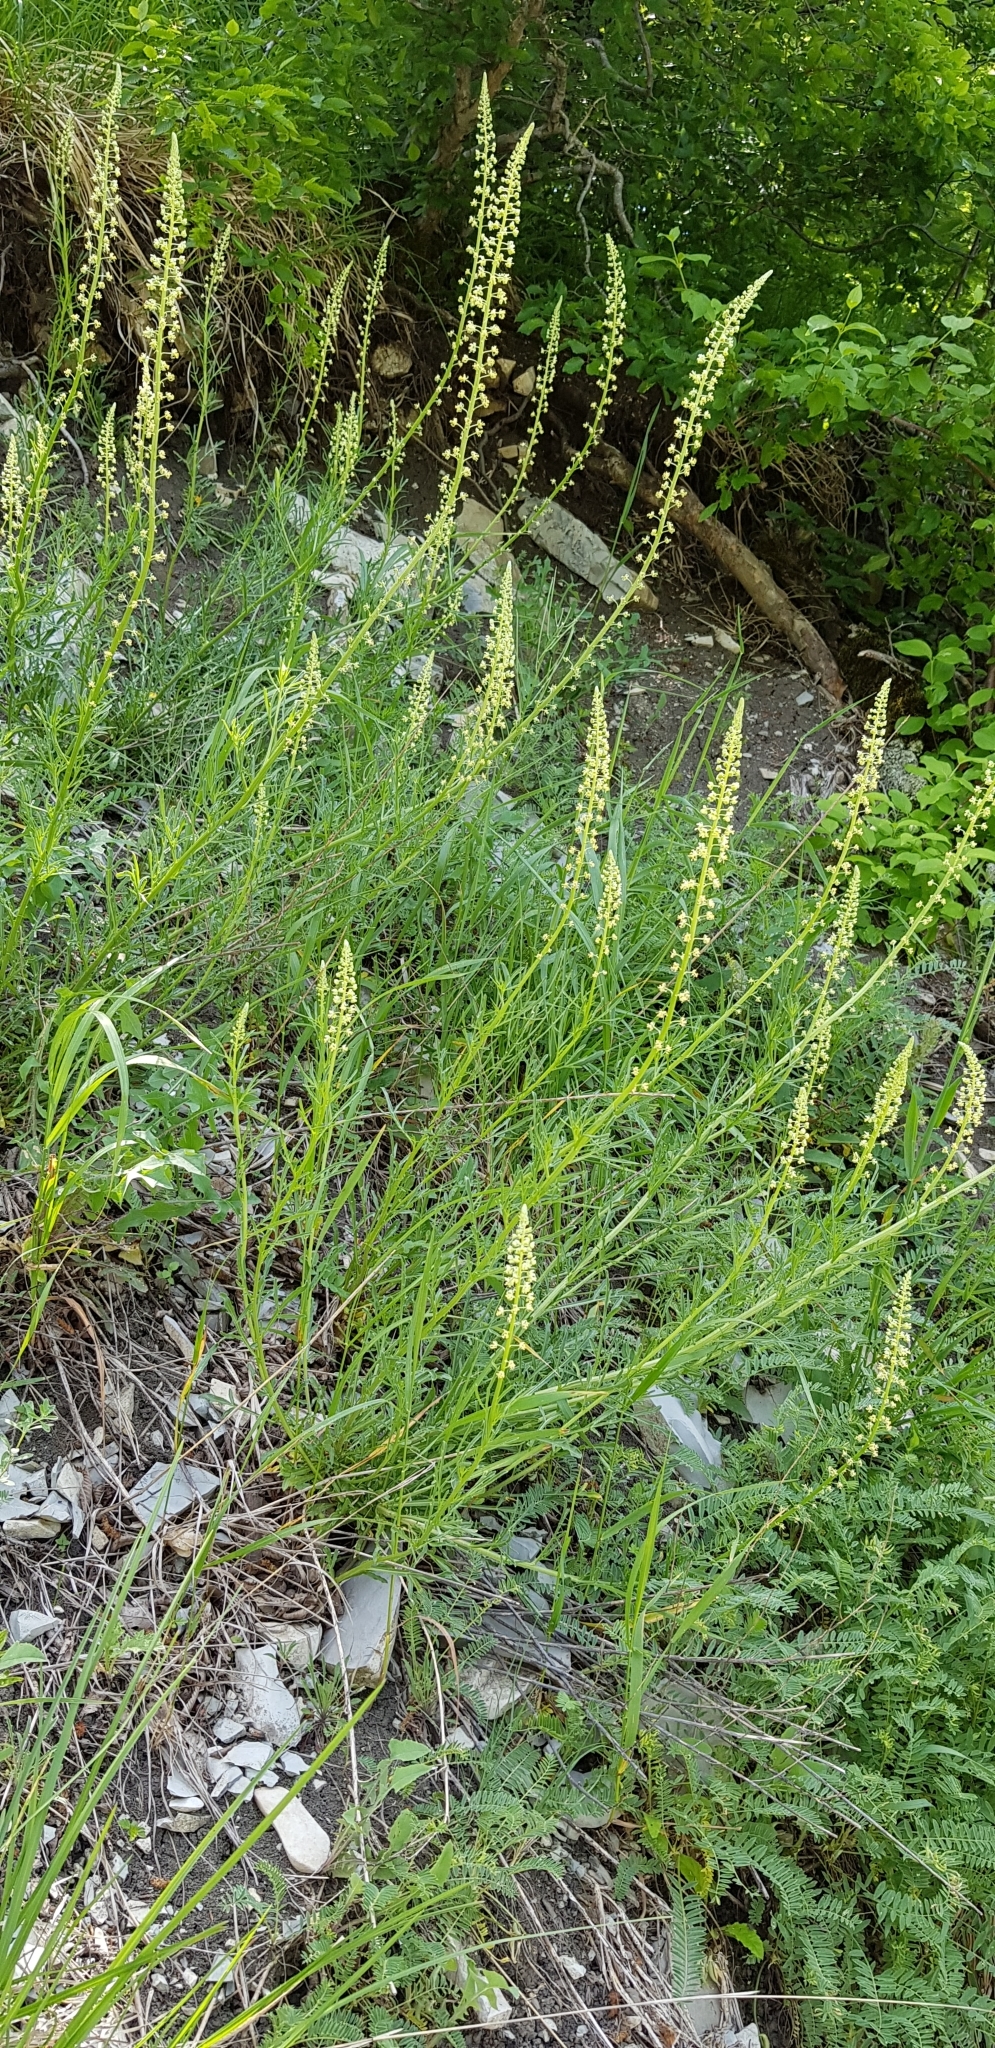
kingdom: Plantae
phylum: Tracheophyta
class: Magnoliopsida
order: Brassicales
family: Resedaceae
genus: Reseda
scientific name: Reseda lutea
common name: Wild mignonette
